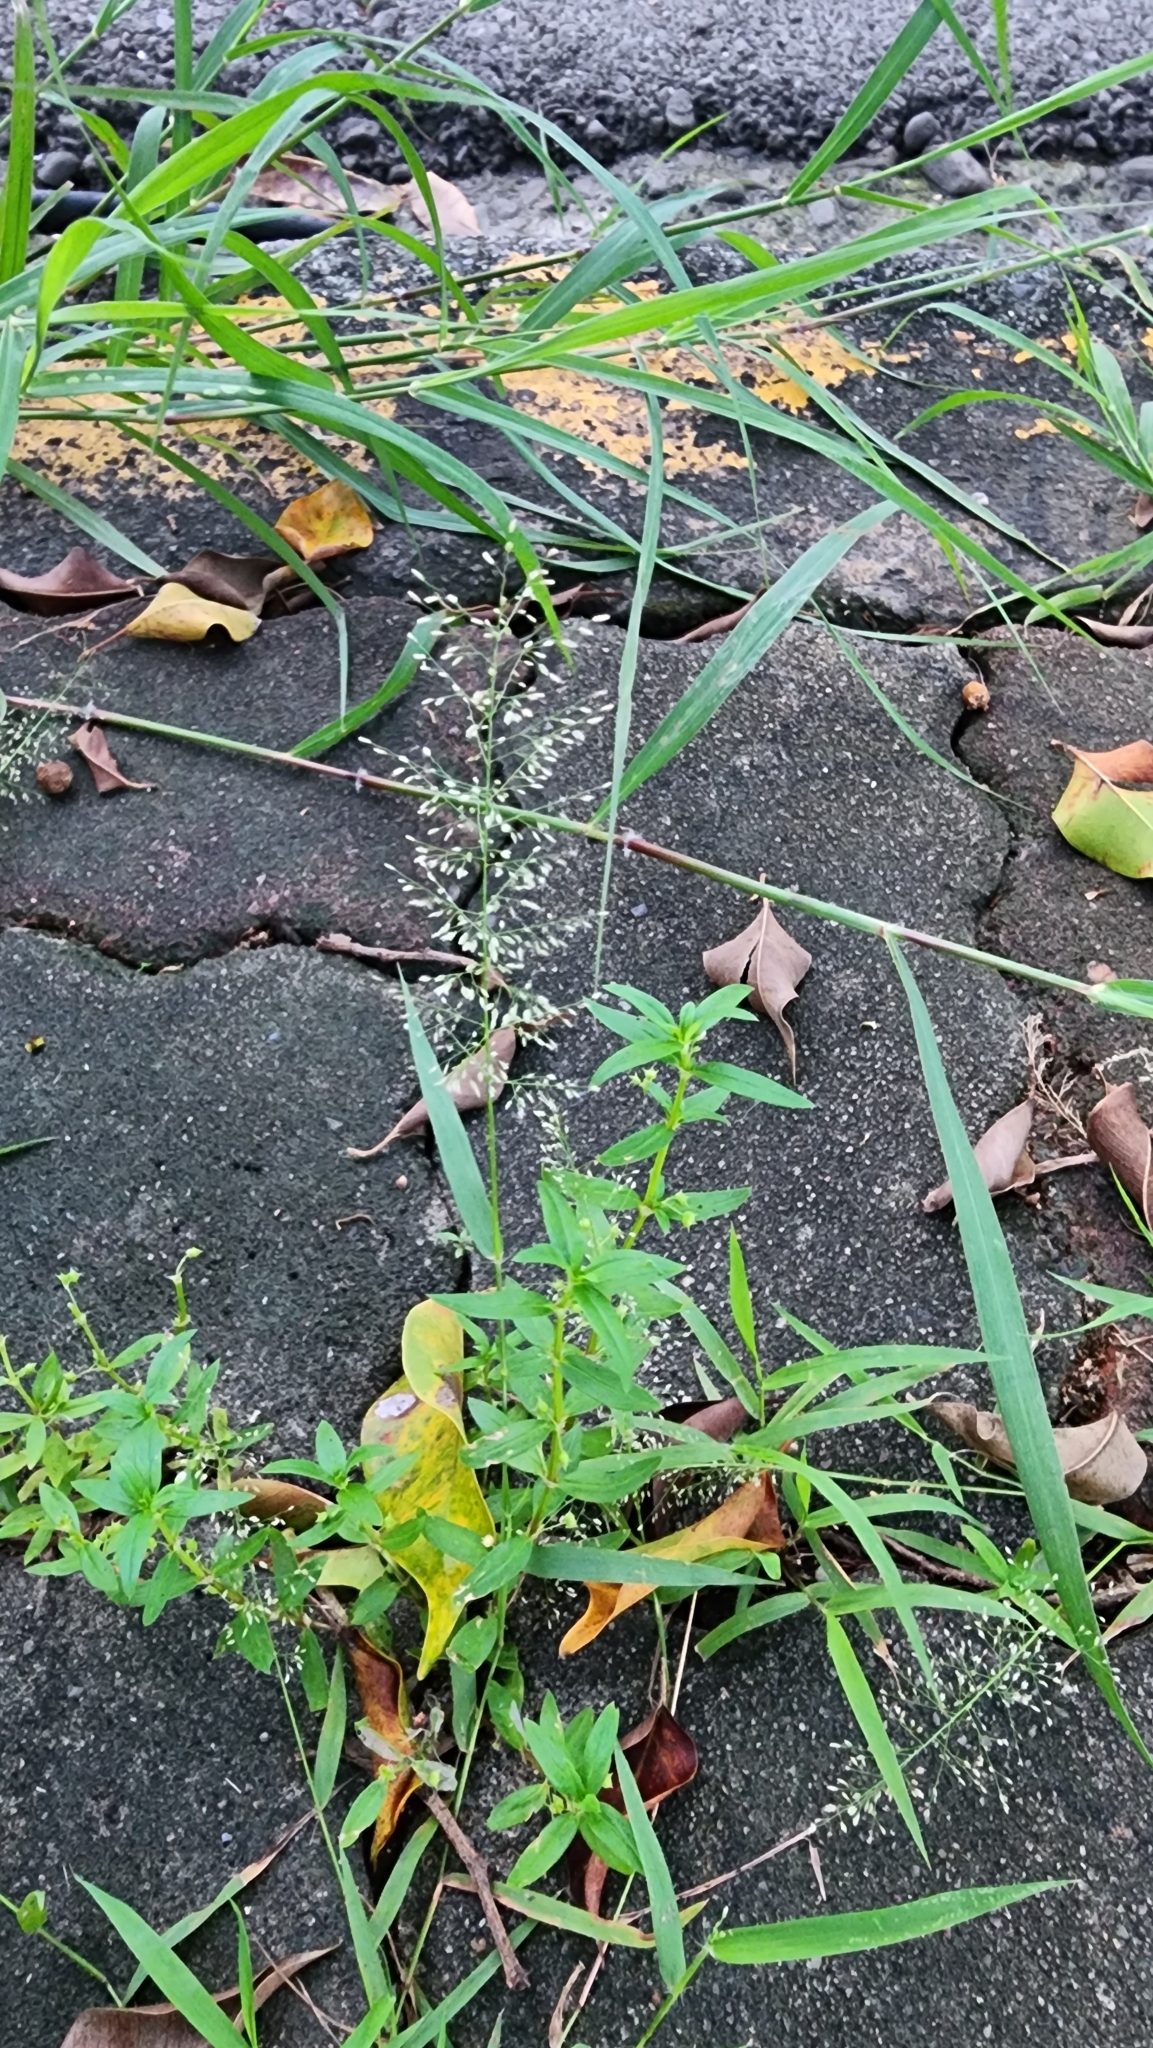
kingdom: Plantae
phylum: Tracheophyta
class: Liliopsida
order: Poales
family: Poaceae
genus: Eragrostis
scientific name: Eragrostis tenella
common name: Japanese lovegrass
